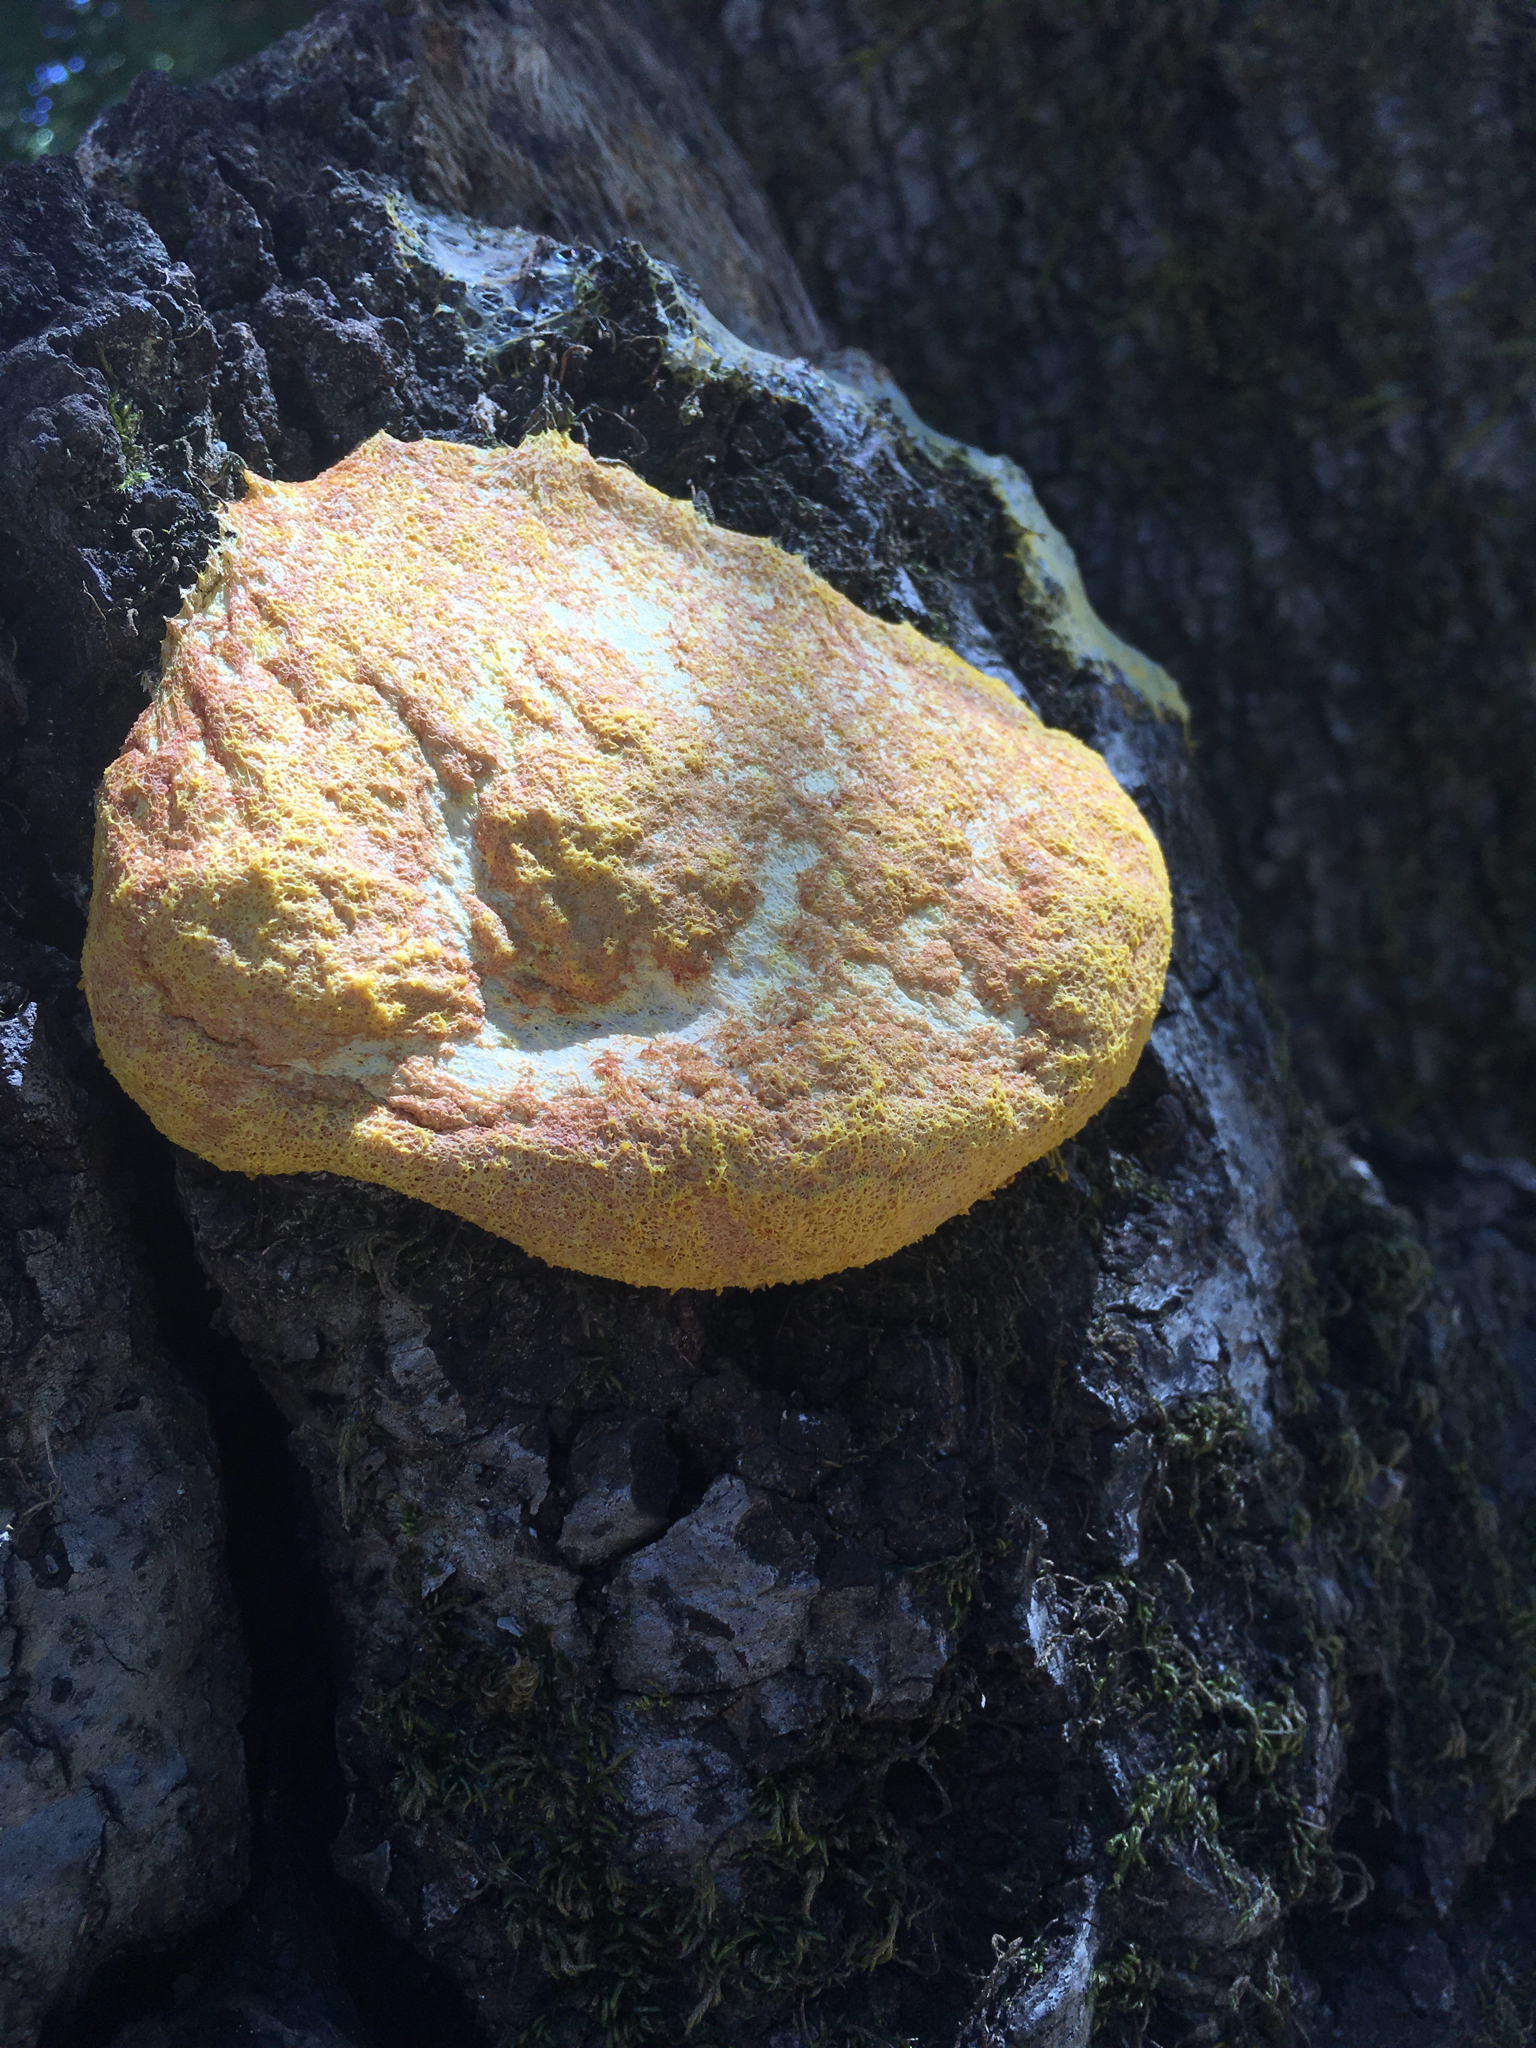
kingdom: Protozoa
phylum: Mycetozoa
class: Myxomycetes
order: Physarales
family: Physaraceae
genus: Fuligo
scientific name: Fuligo septica
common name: Dog vomit slime mold
